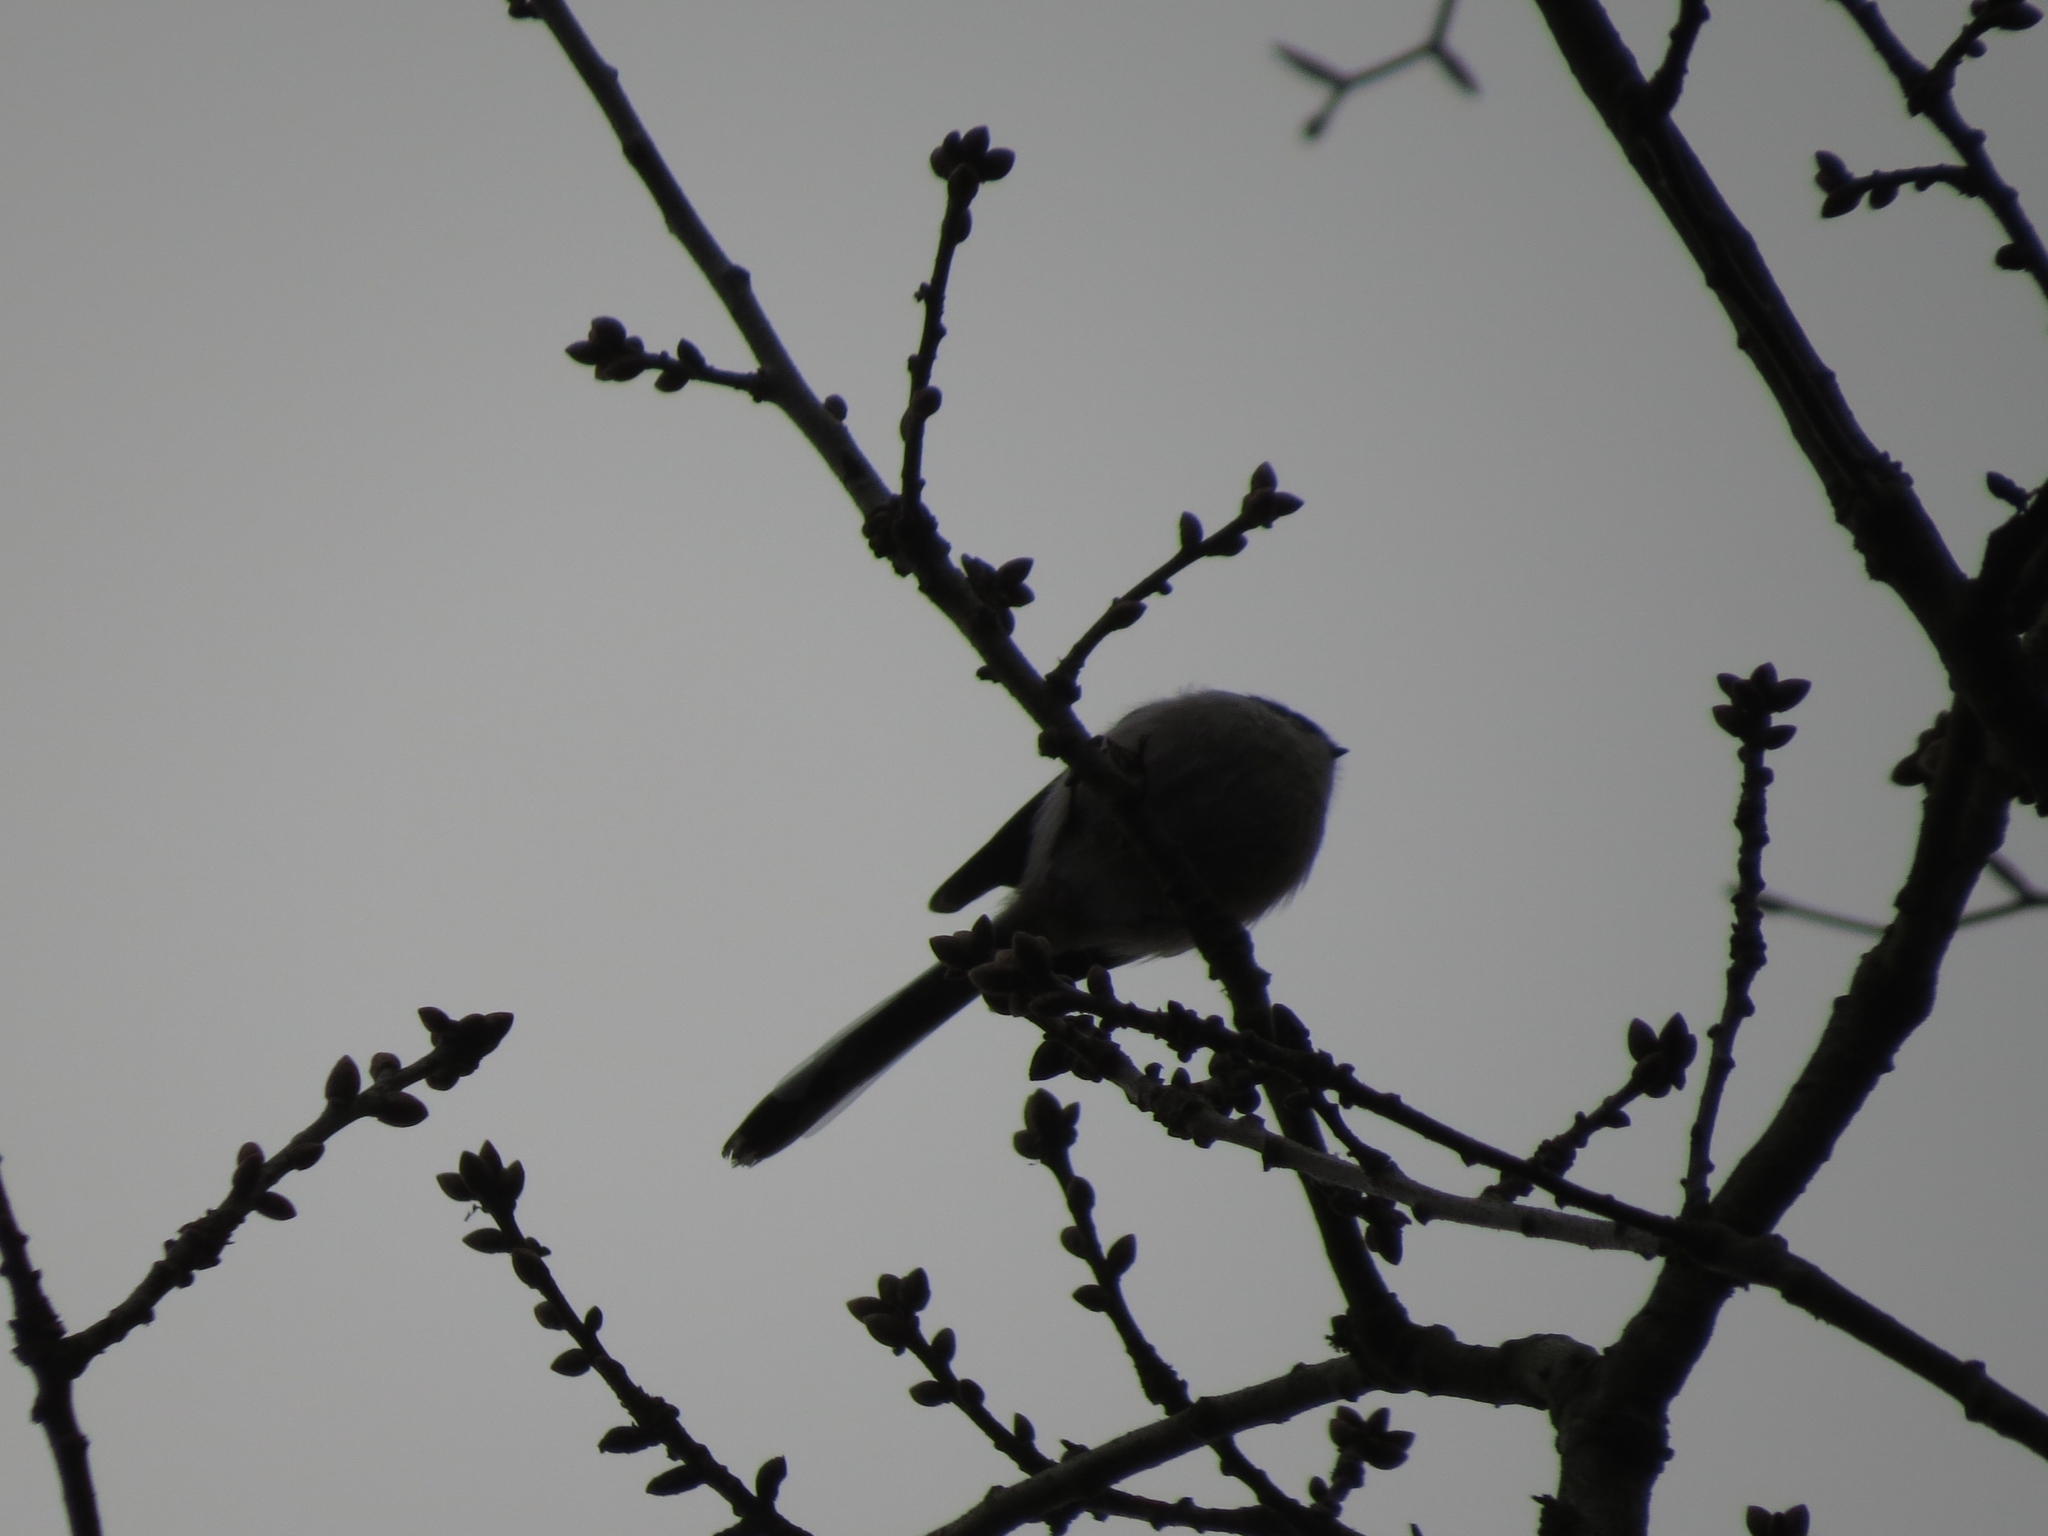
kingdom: Animalia
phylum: Chordata
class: Aves
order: Passeriformes
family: Aegithalidae
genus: Aegithalos
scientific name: Aegithalos caudatus
